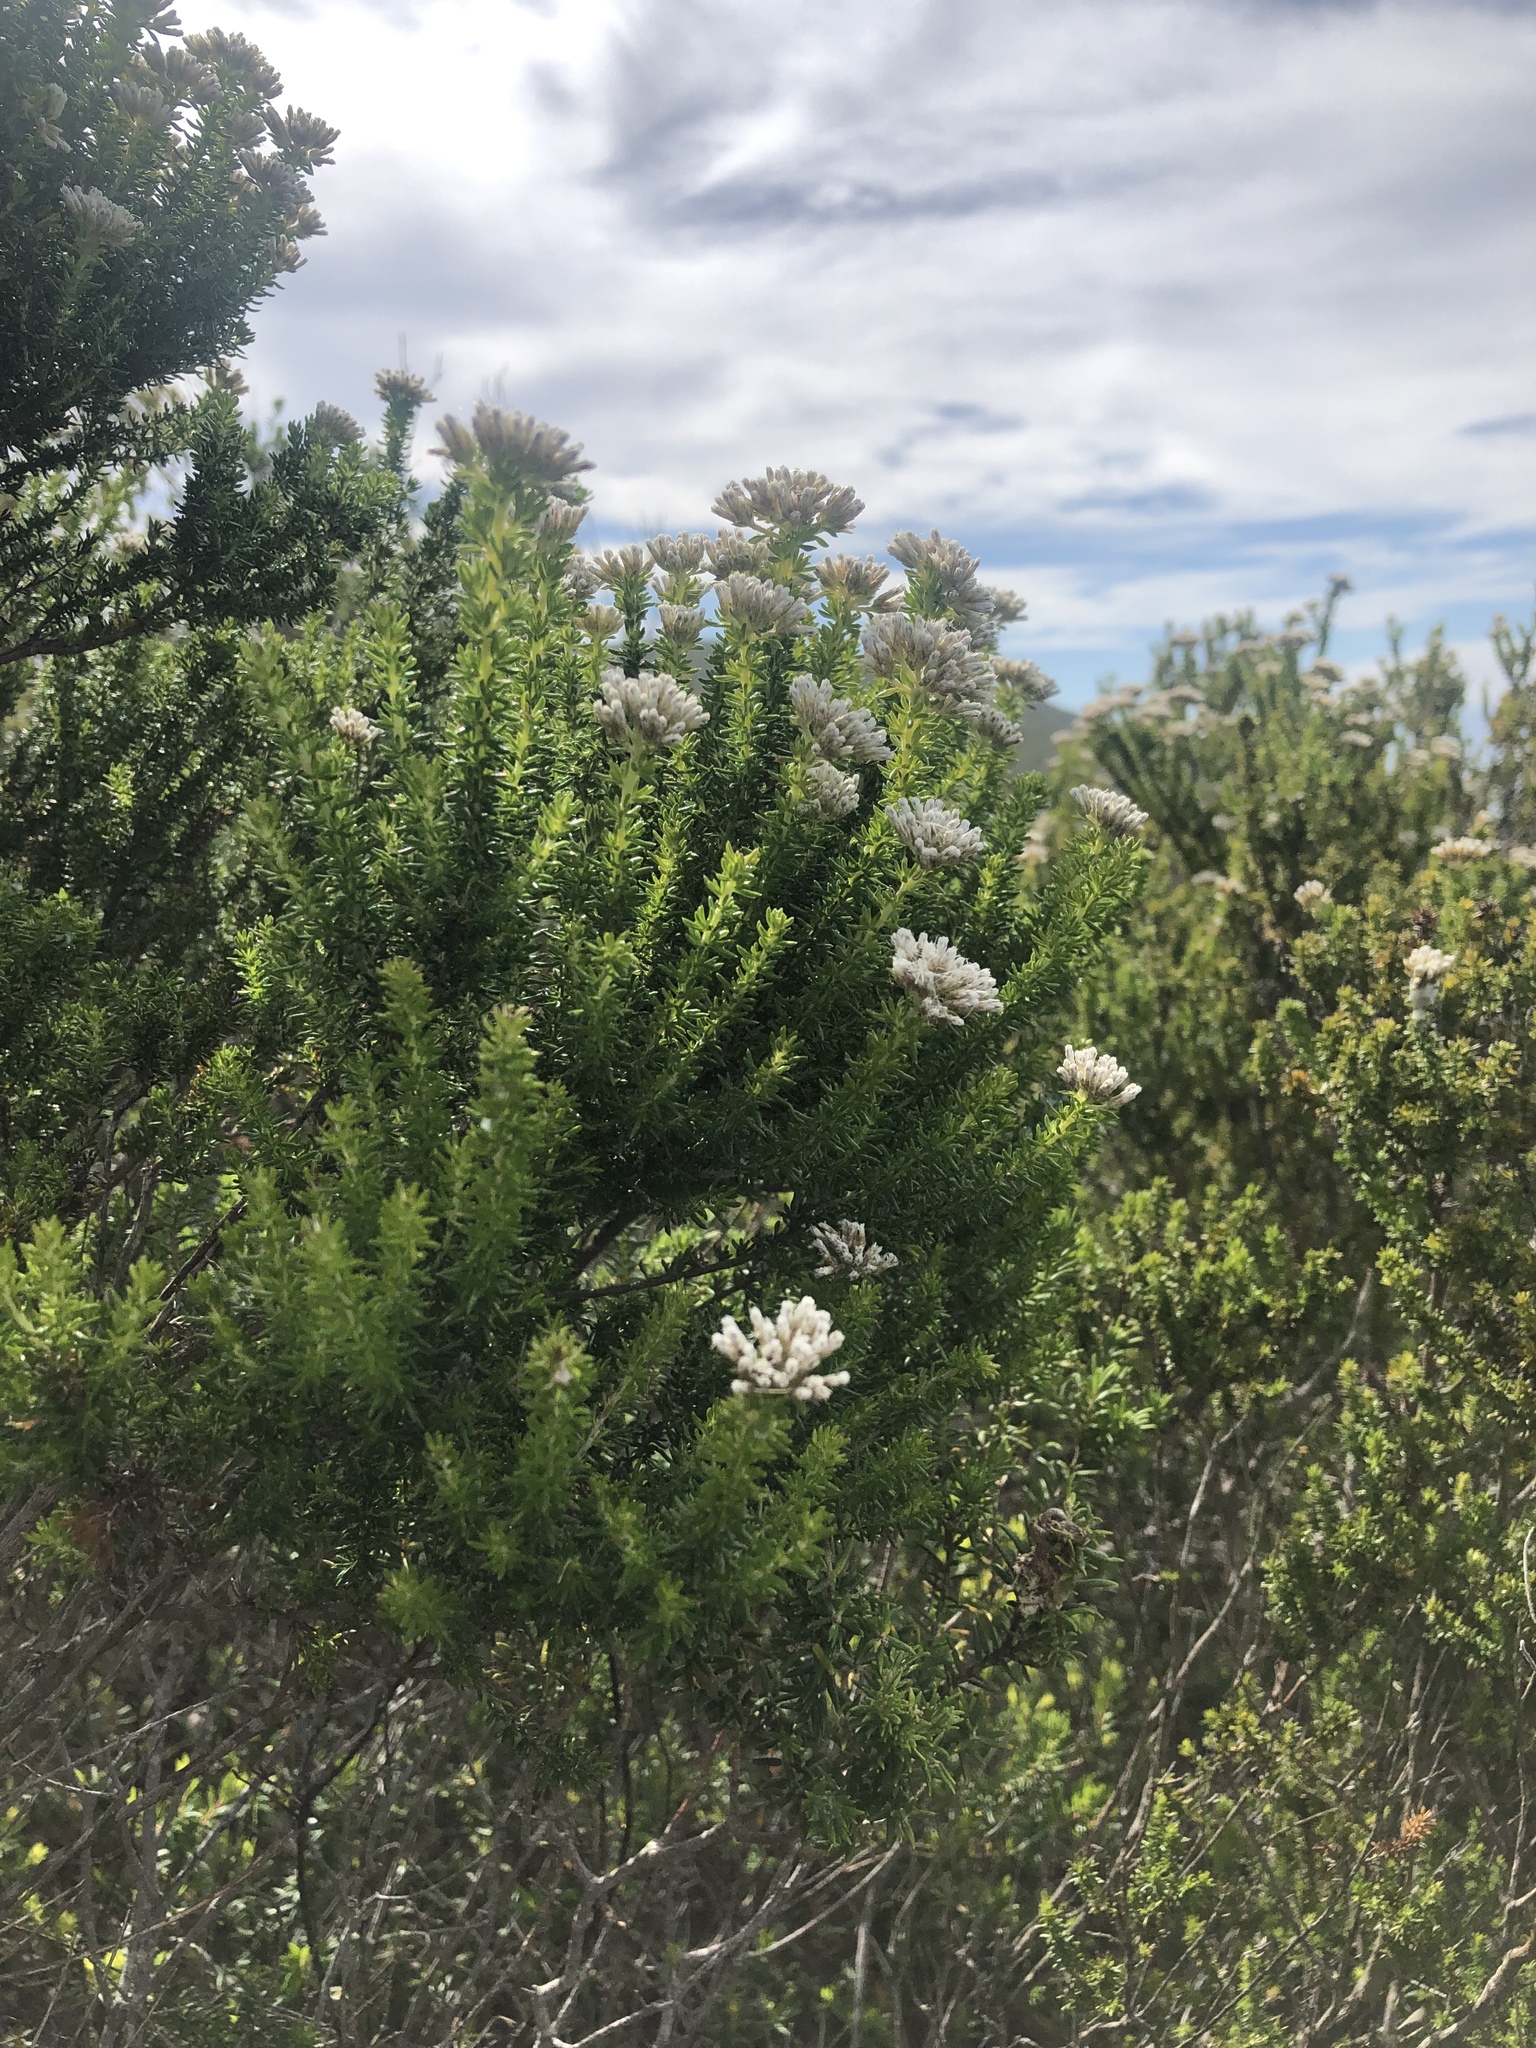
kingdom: Plantae
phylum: Tracheophyta
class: Magnoliopsida
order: Asterales
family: Asteraceae
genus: Metalasia
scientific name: Metalasia densa
